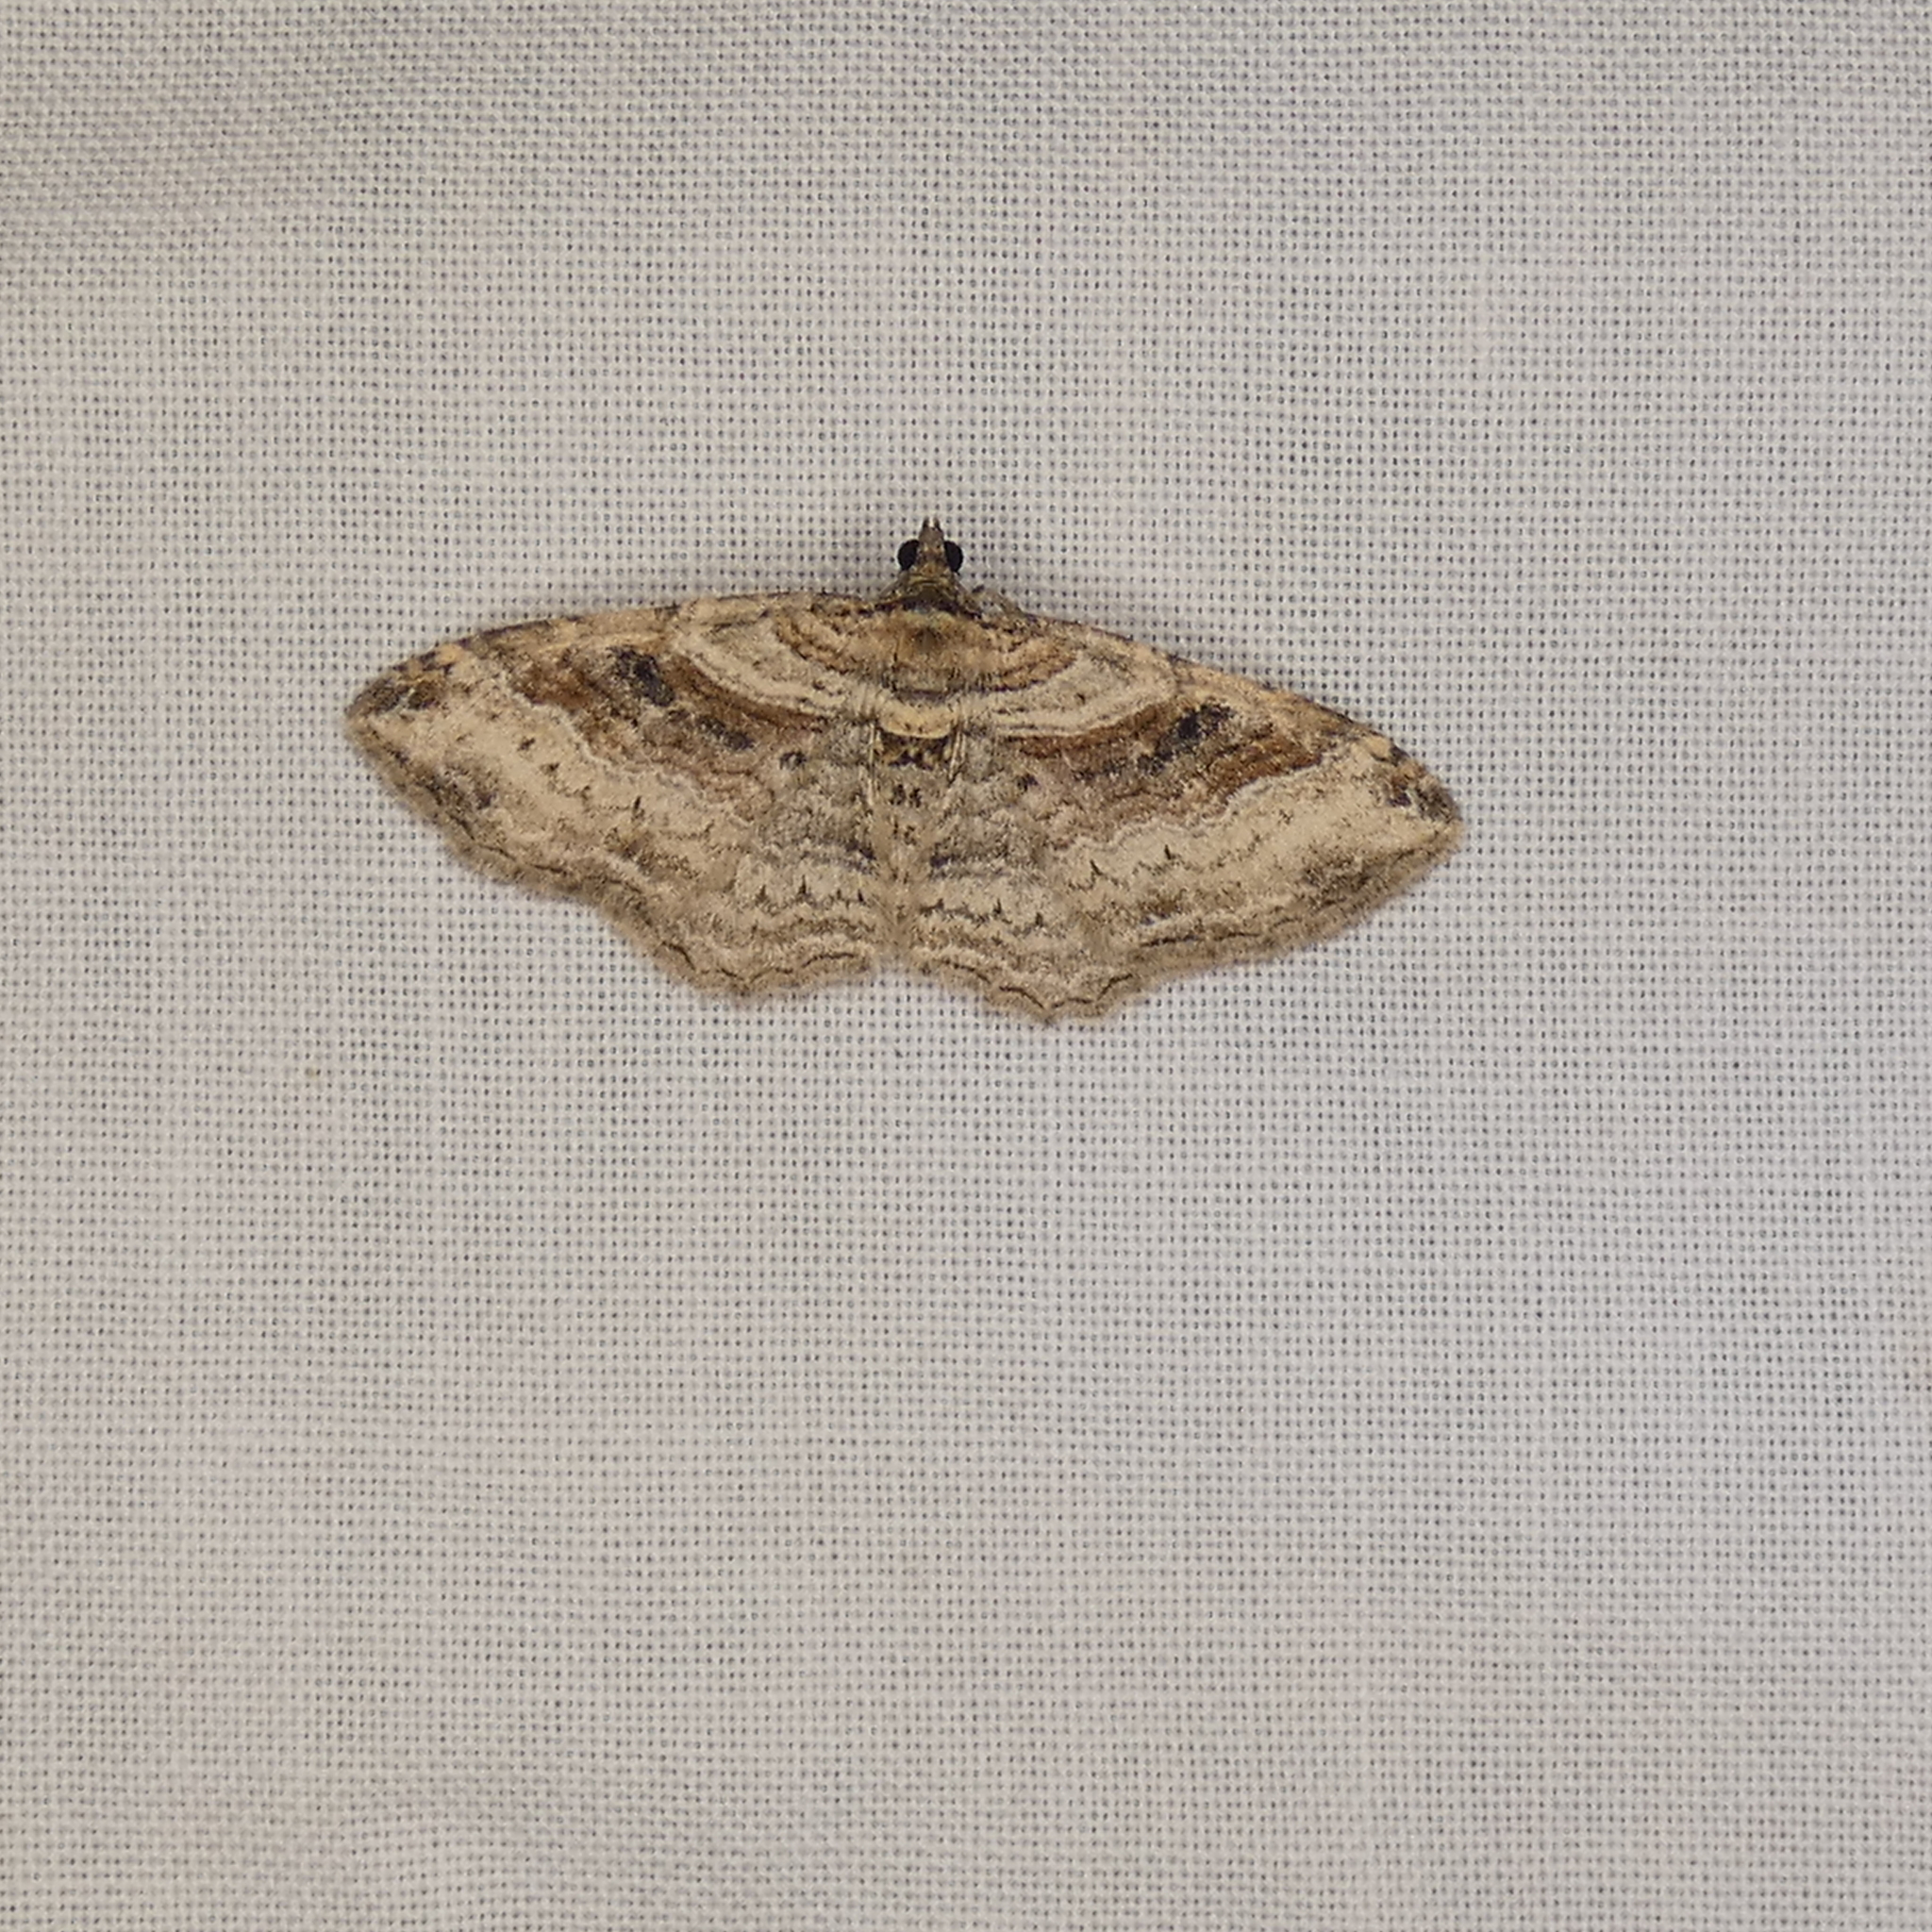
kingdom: Animalia
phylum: Arthropoda
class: Insecta
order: Lepidoptera
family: Geometridae
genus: Costaconvexa
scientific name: Costaconvexa centrostrigaria
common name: Bent-line carpet
